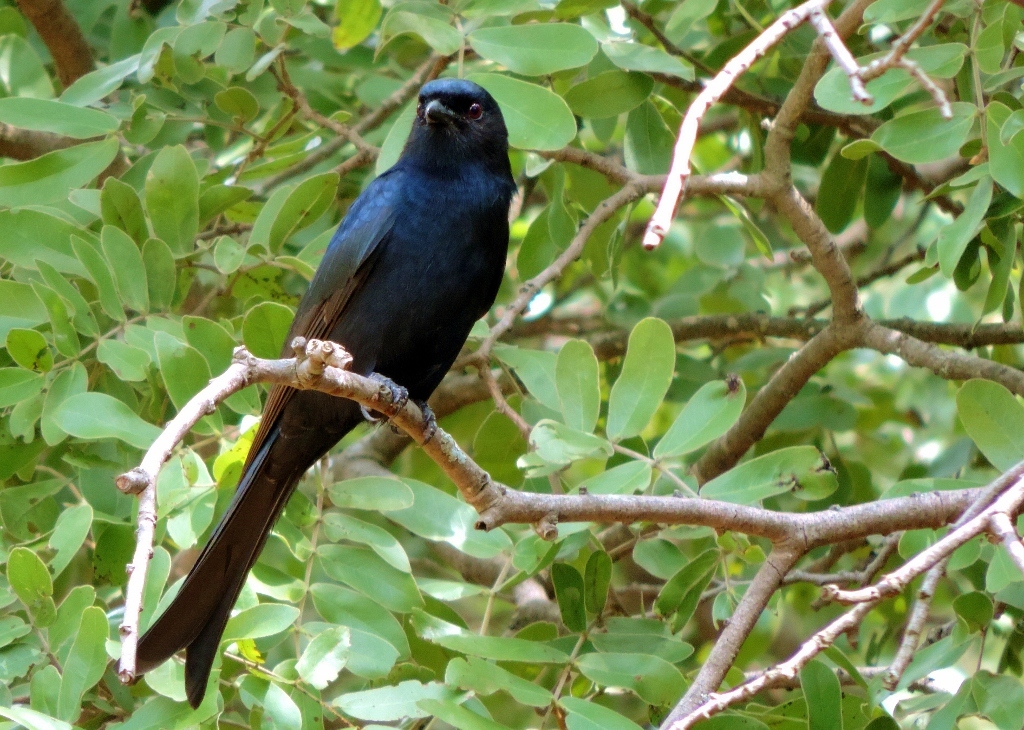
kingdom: Animalia
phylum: Chordata
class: Aves
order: Passeriformes
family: Dicruridae
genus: Dicrurus
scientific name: Dicrurus adsimilis
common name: Fork-tailed drongo
